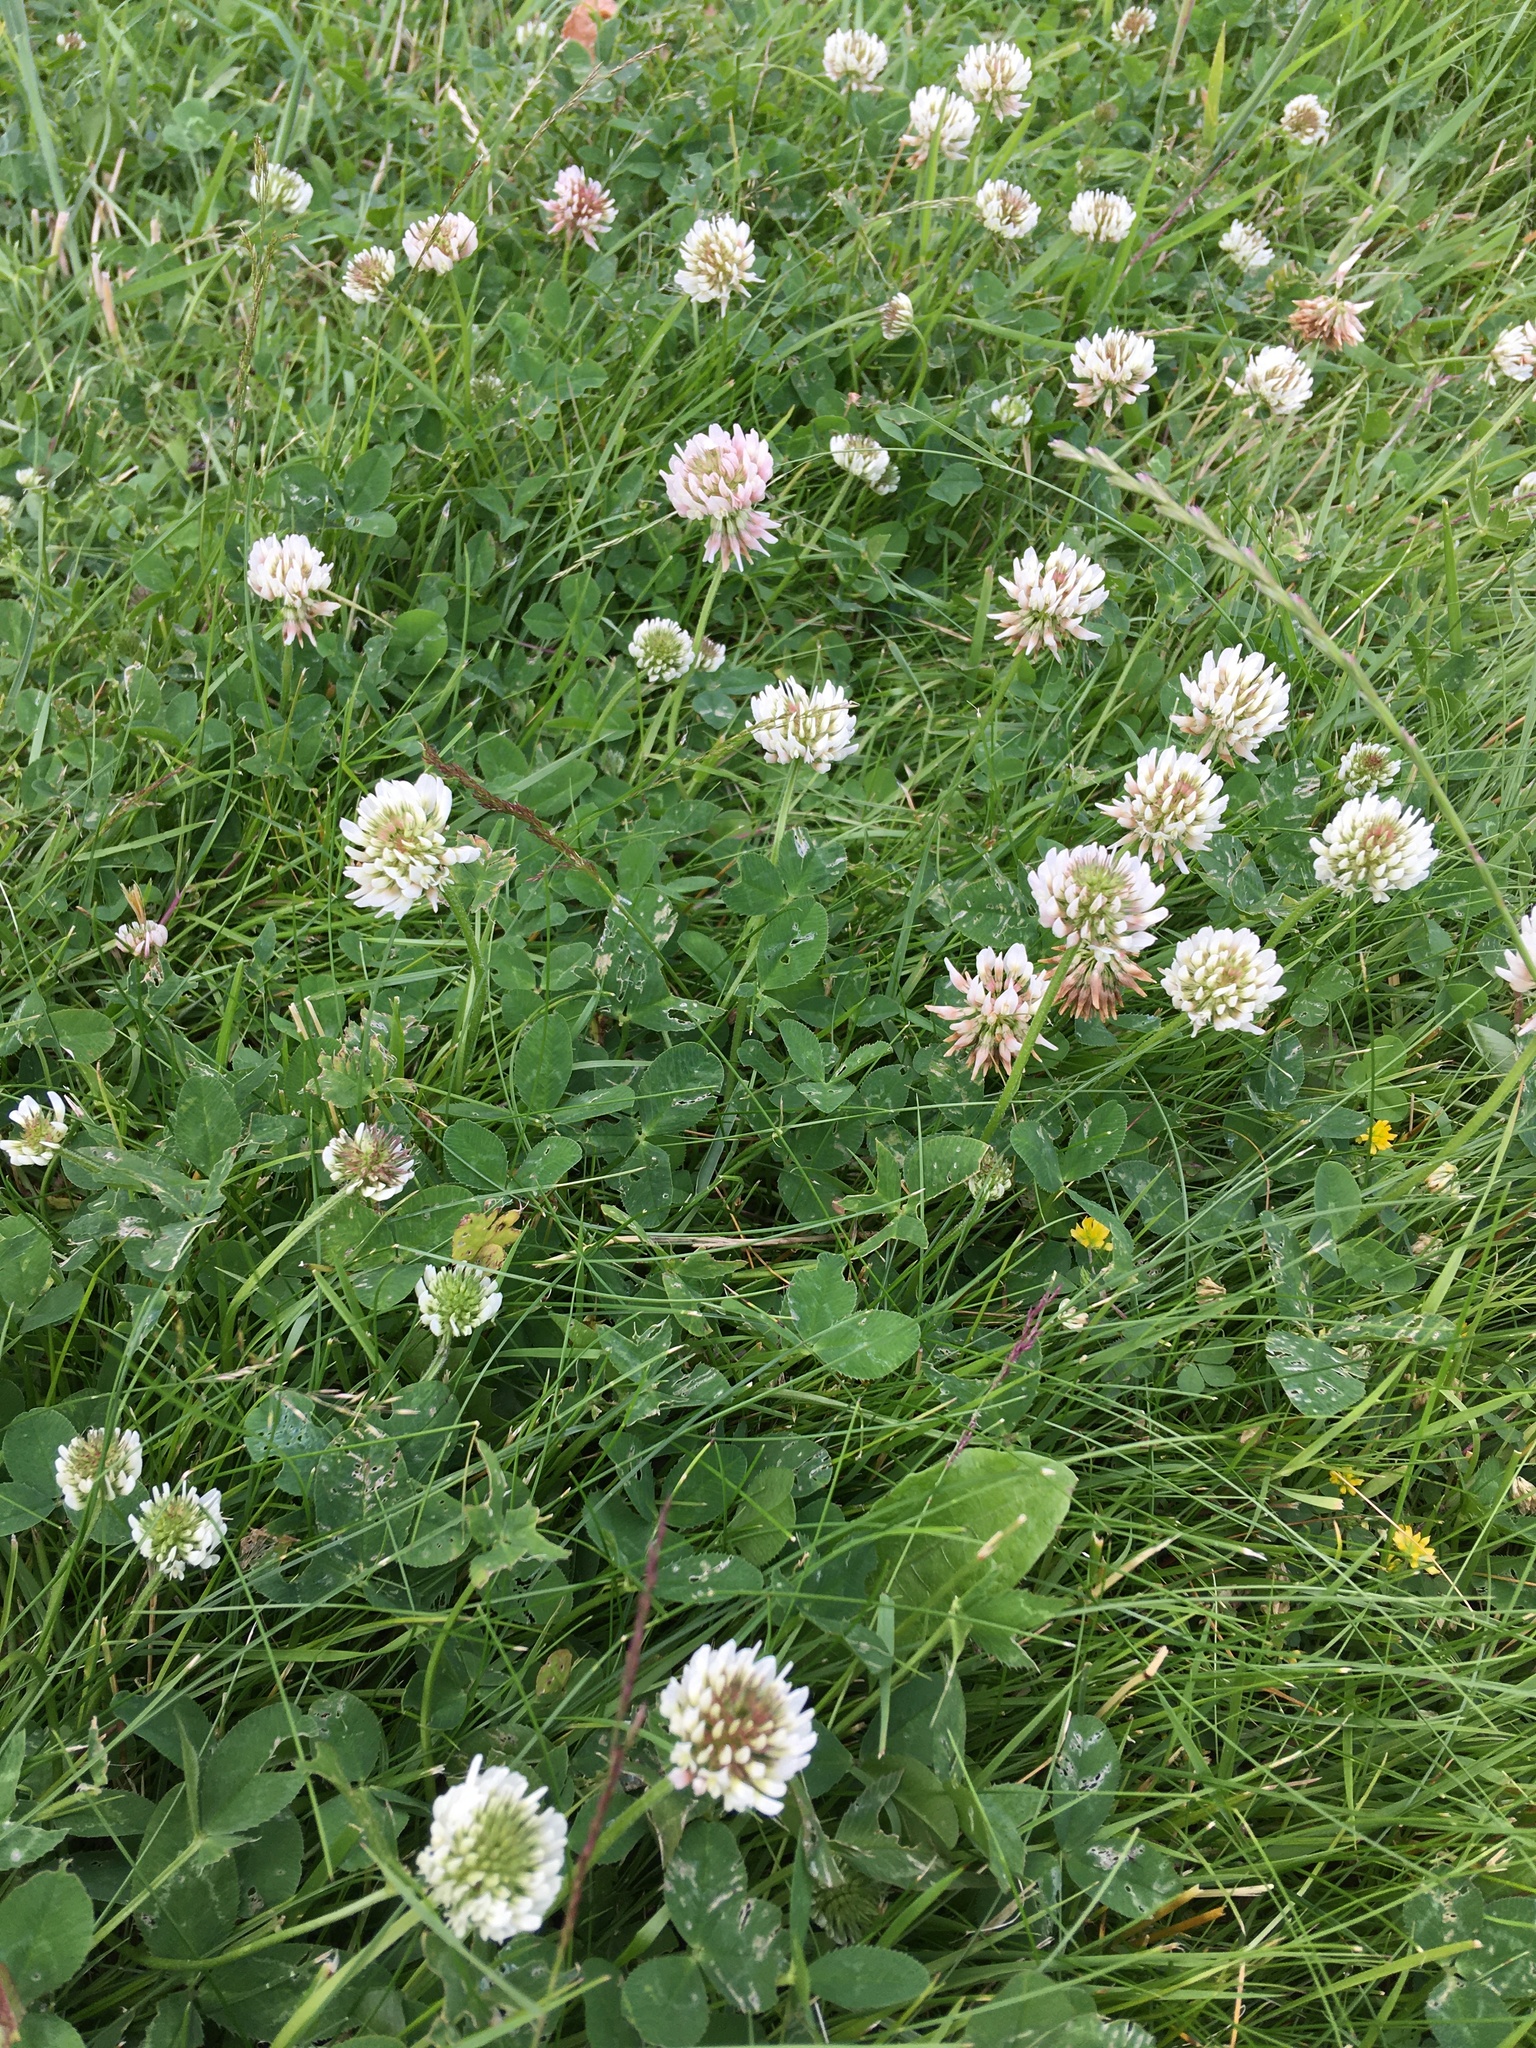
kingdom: Plantae
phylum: Tracheophyta
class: Magnoliopsida
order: Fabales
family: Fabaceae
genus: Trifolium
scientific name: Trifolium repens
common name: White clover
